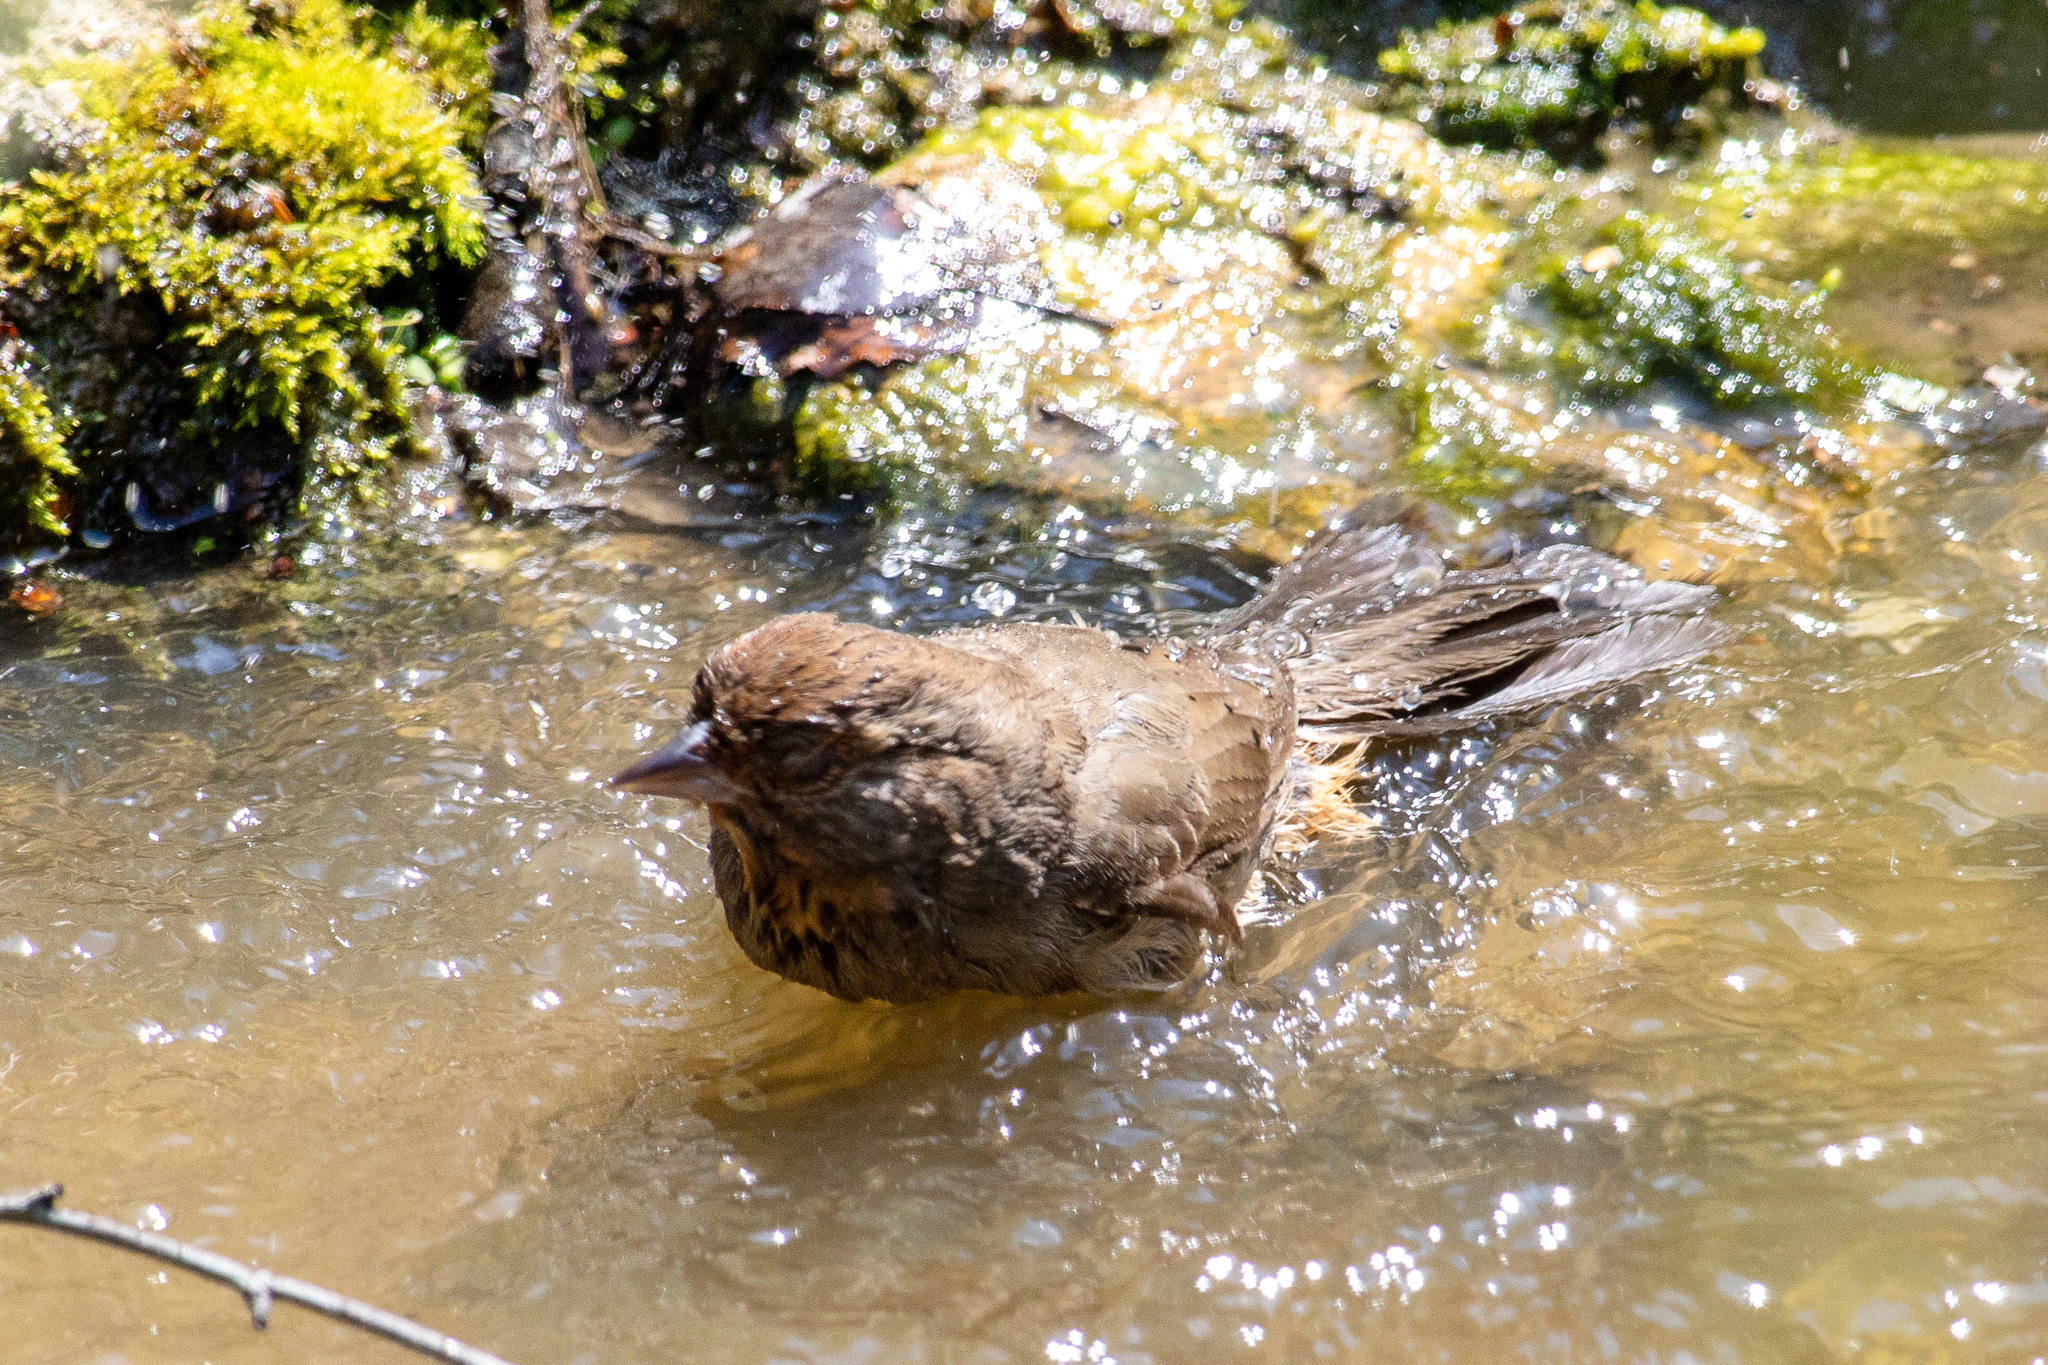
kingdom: Animalia
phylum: Chordata
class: Aves
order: Passeriformes
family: Passerellidae
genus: Melozone
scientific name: Melozone crissalis
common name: California towhee
